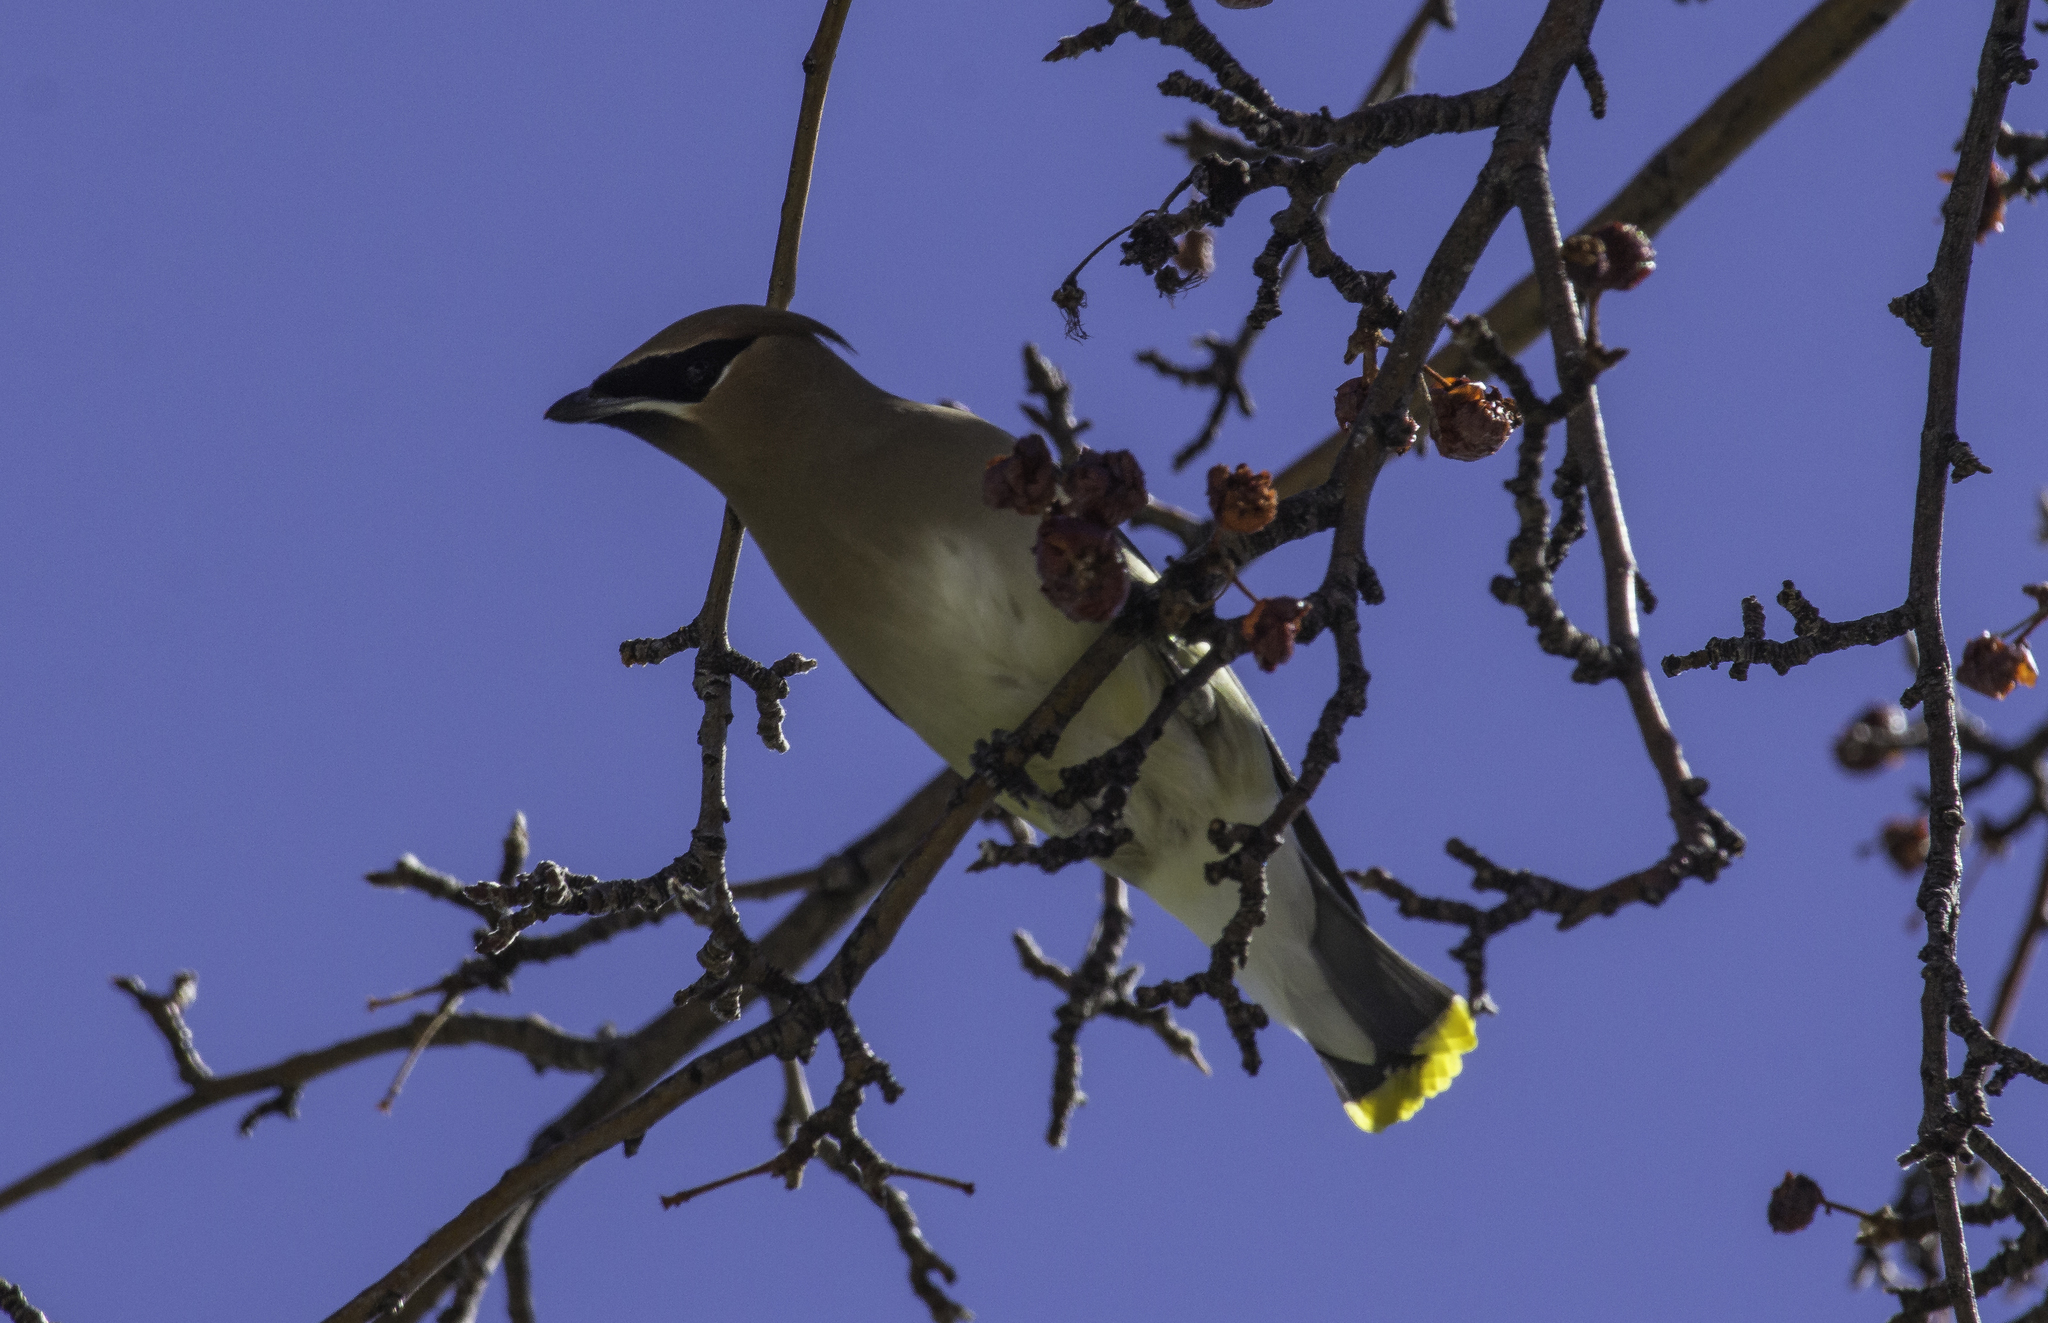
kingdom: Animalia
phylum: Chordata
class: Aves
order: Passeriformes
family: Bombycillidae
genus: Bombycilla
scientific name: Bombycilla cedrorum
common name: Cedar waxwing
